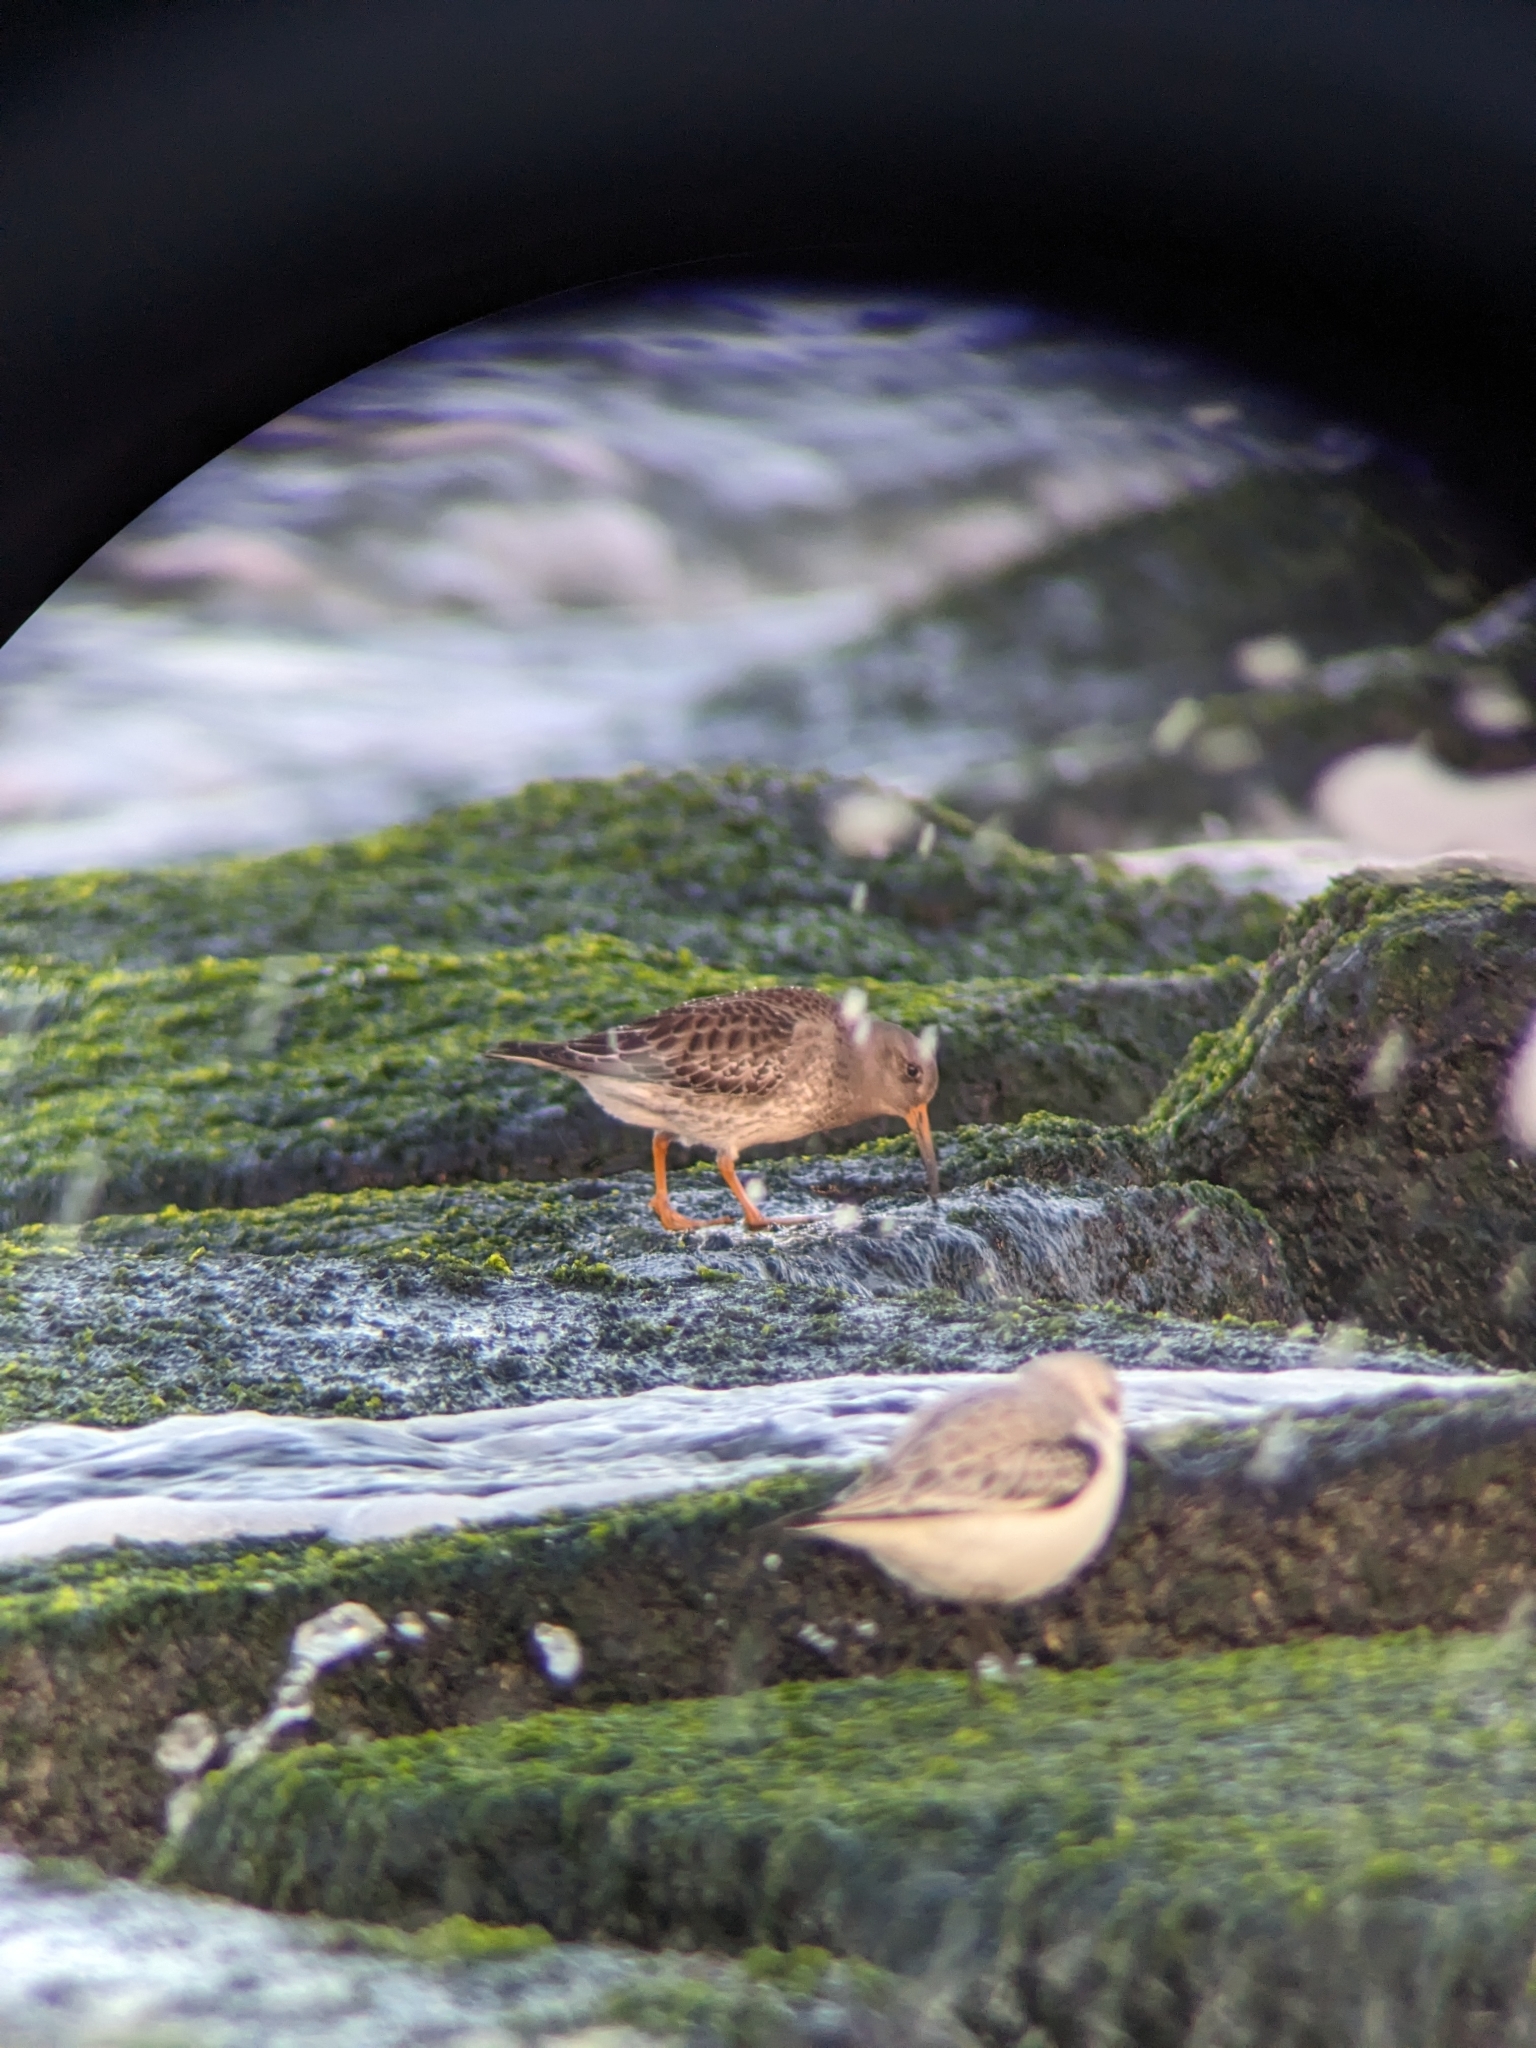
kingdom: Animalia
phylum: Chordata
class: Aves
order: Charadriiformes
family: Scolopacidae
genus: Calidris
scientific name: Calidris maritima
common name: Purple sandpiper
